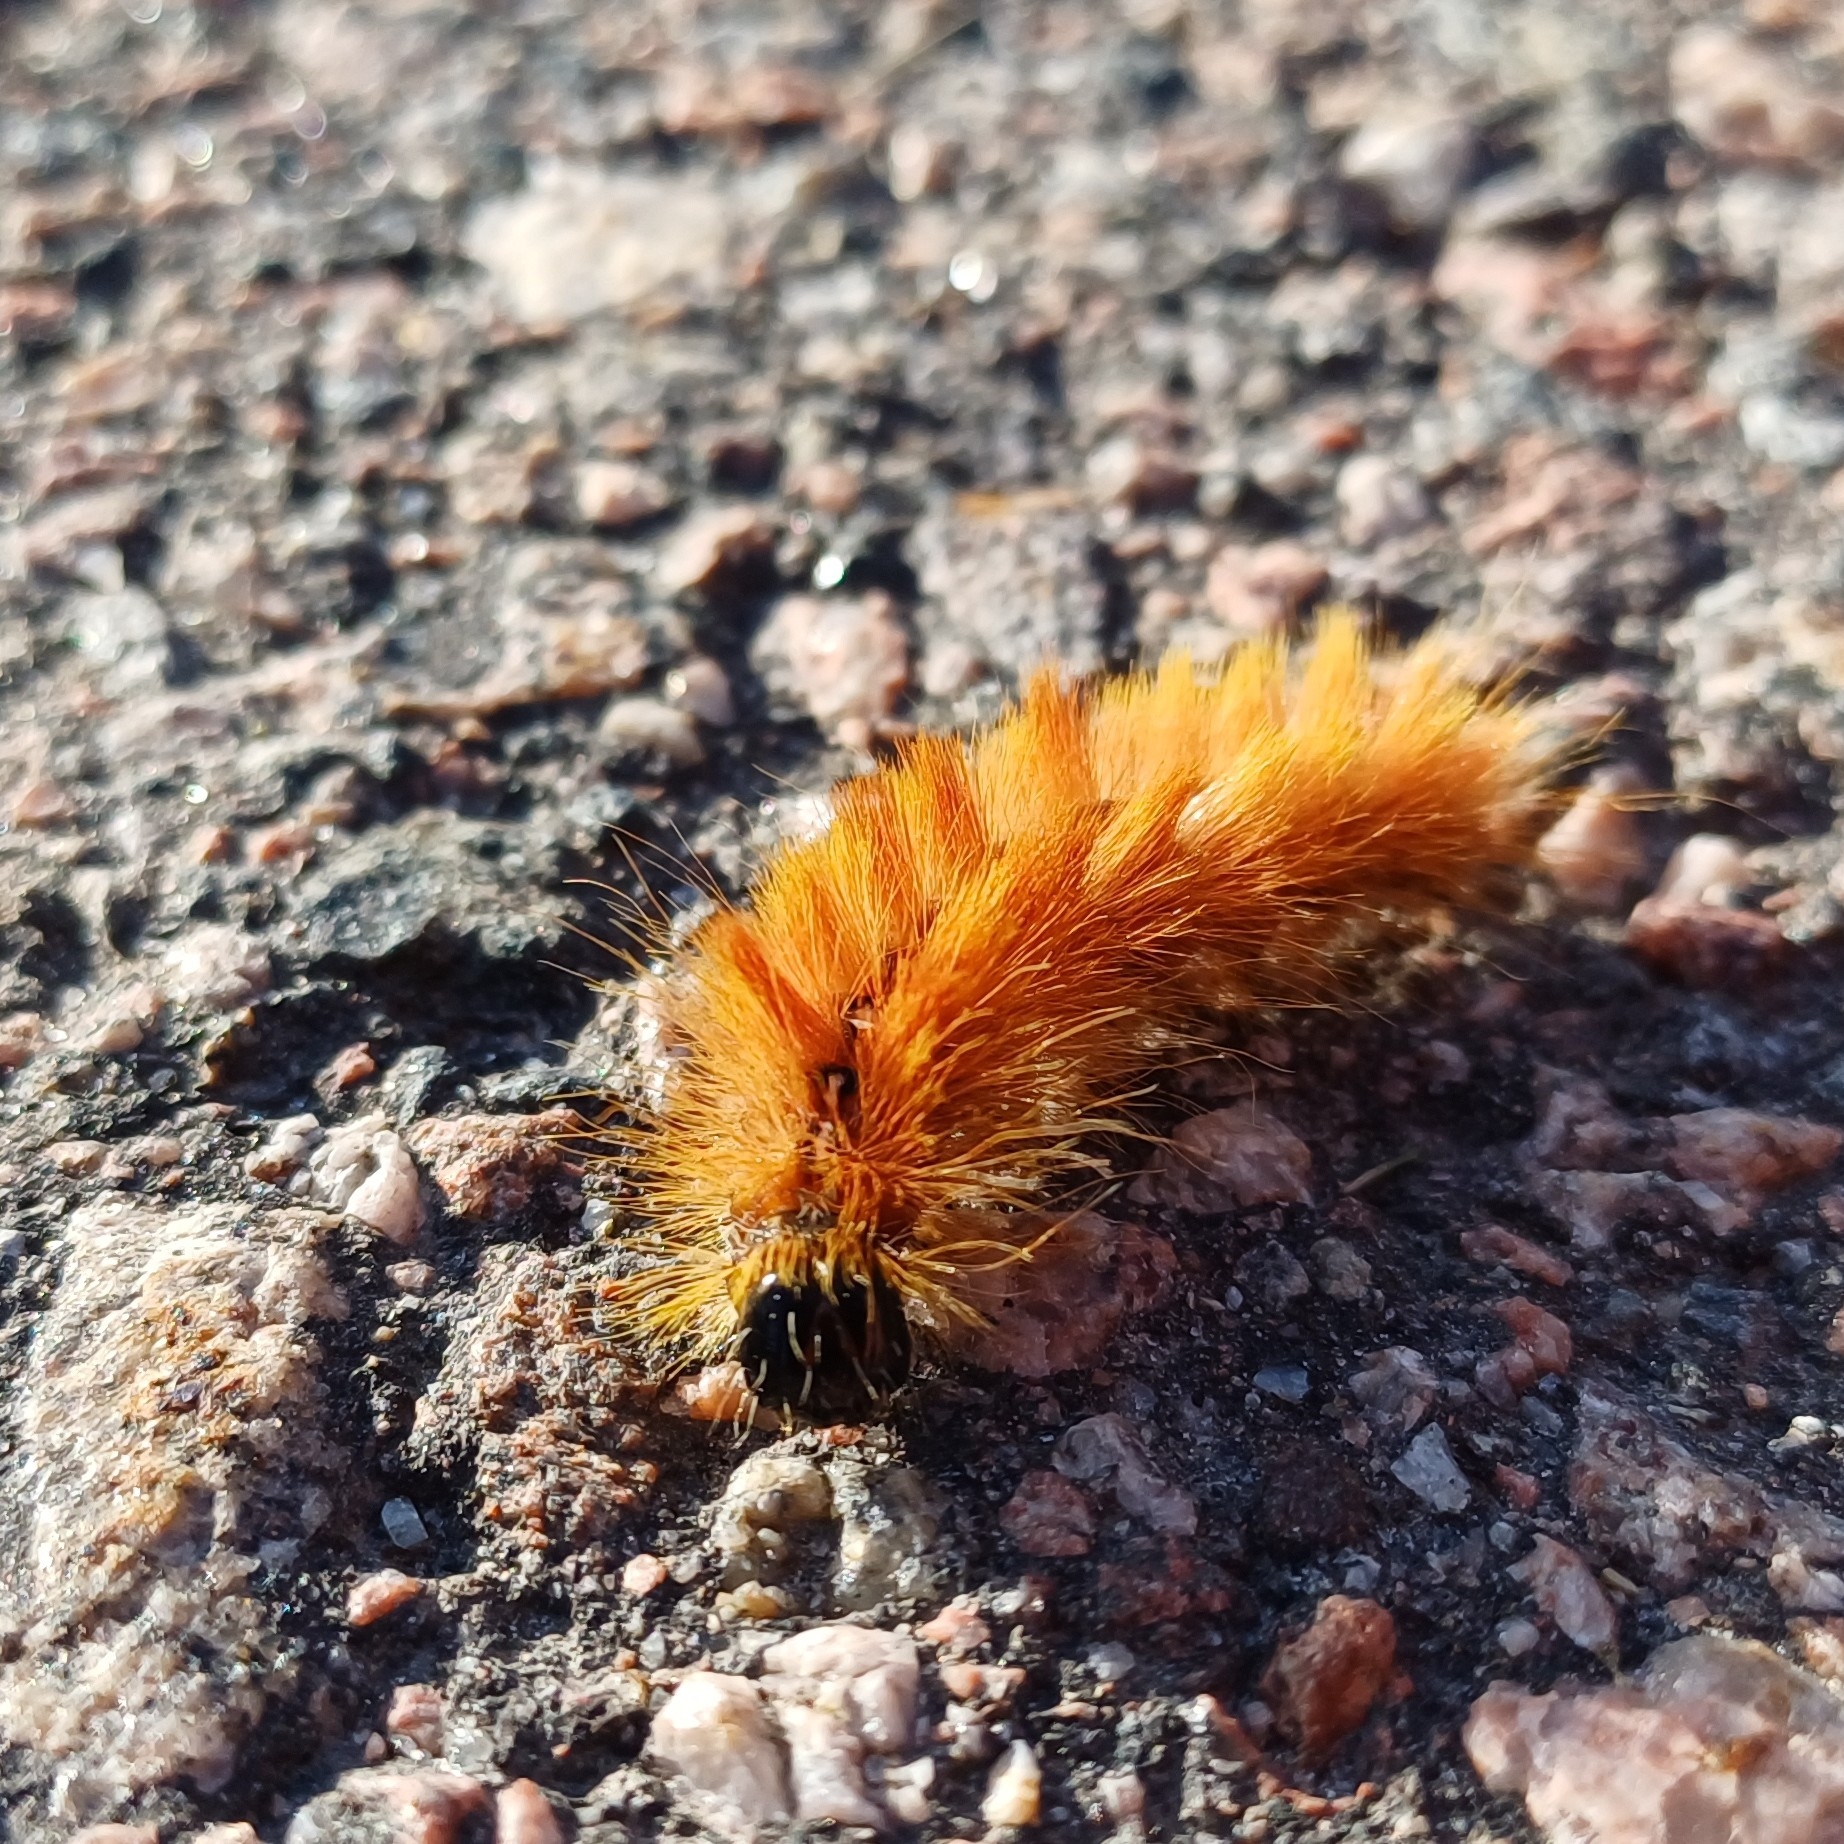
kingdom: Animalia
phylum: Arthropoda
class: Insecta
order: Lepidoptera
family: Noctuidae
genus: Acronicta
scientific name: Acronicta aceris
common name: Sycamore
